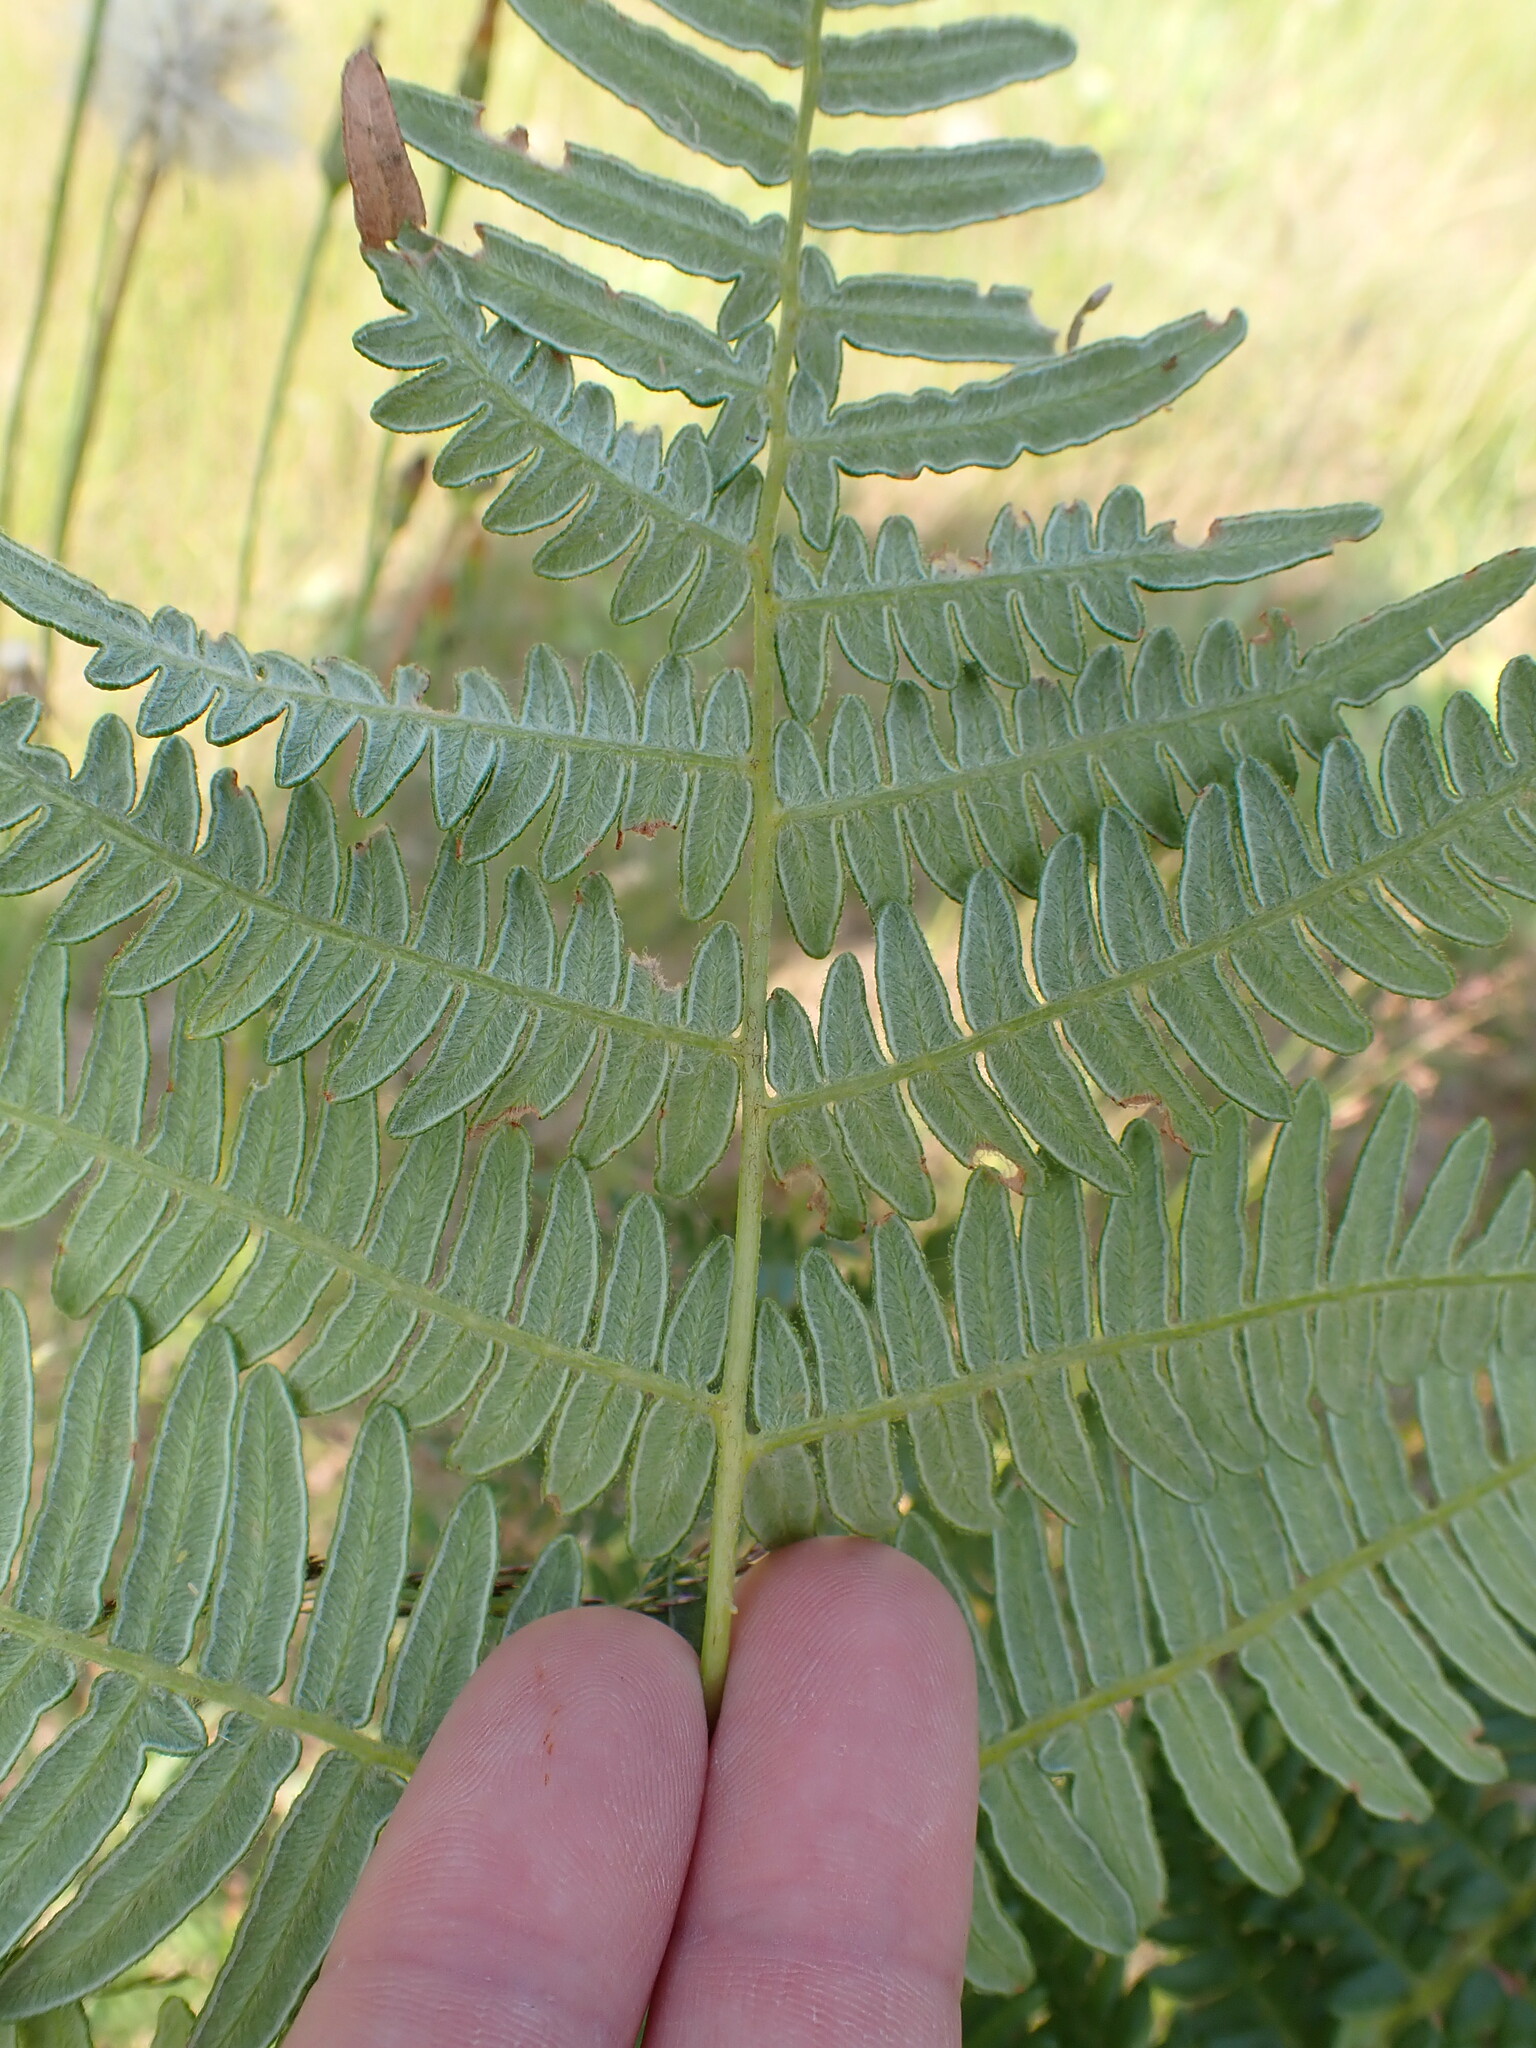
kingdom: Plantae
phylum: Tracheophyta
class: Polypodiopsida
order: Polypodiales
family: Dennstaedtiaceae
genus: Pteridium
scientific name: Pteridium aquilinum
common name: Bracken
